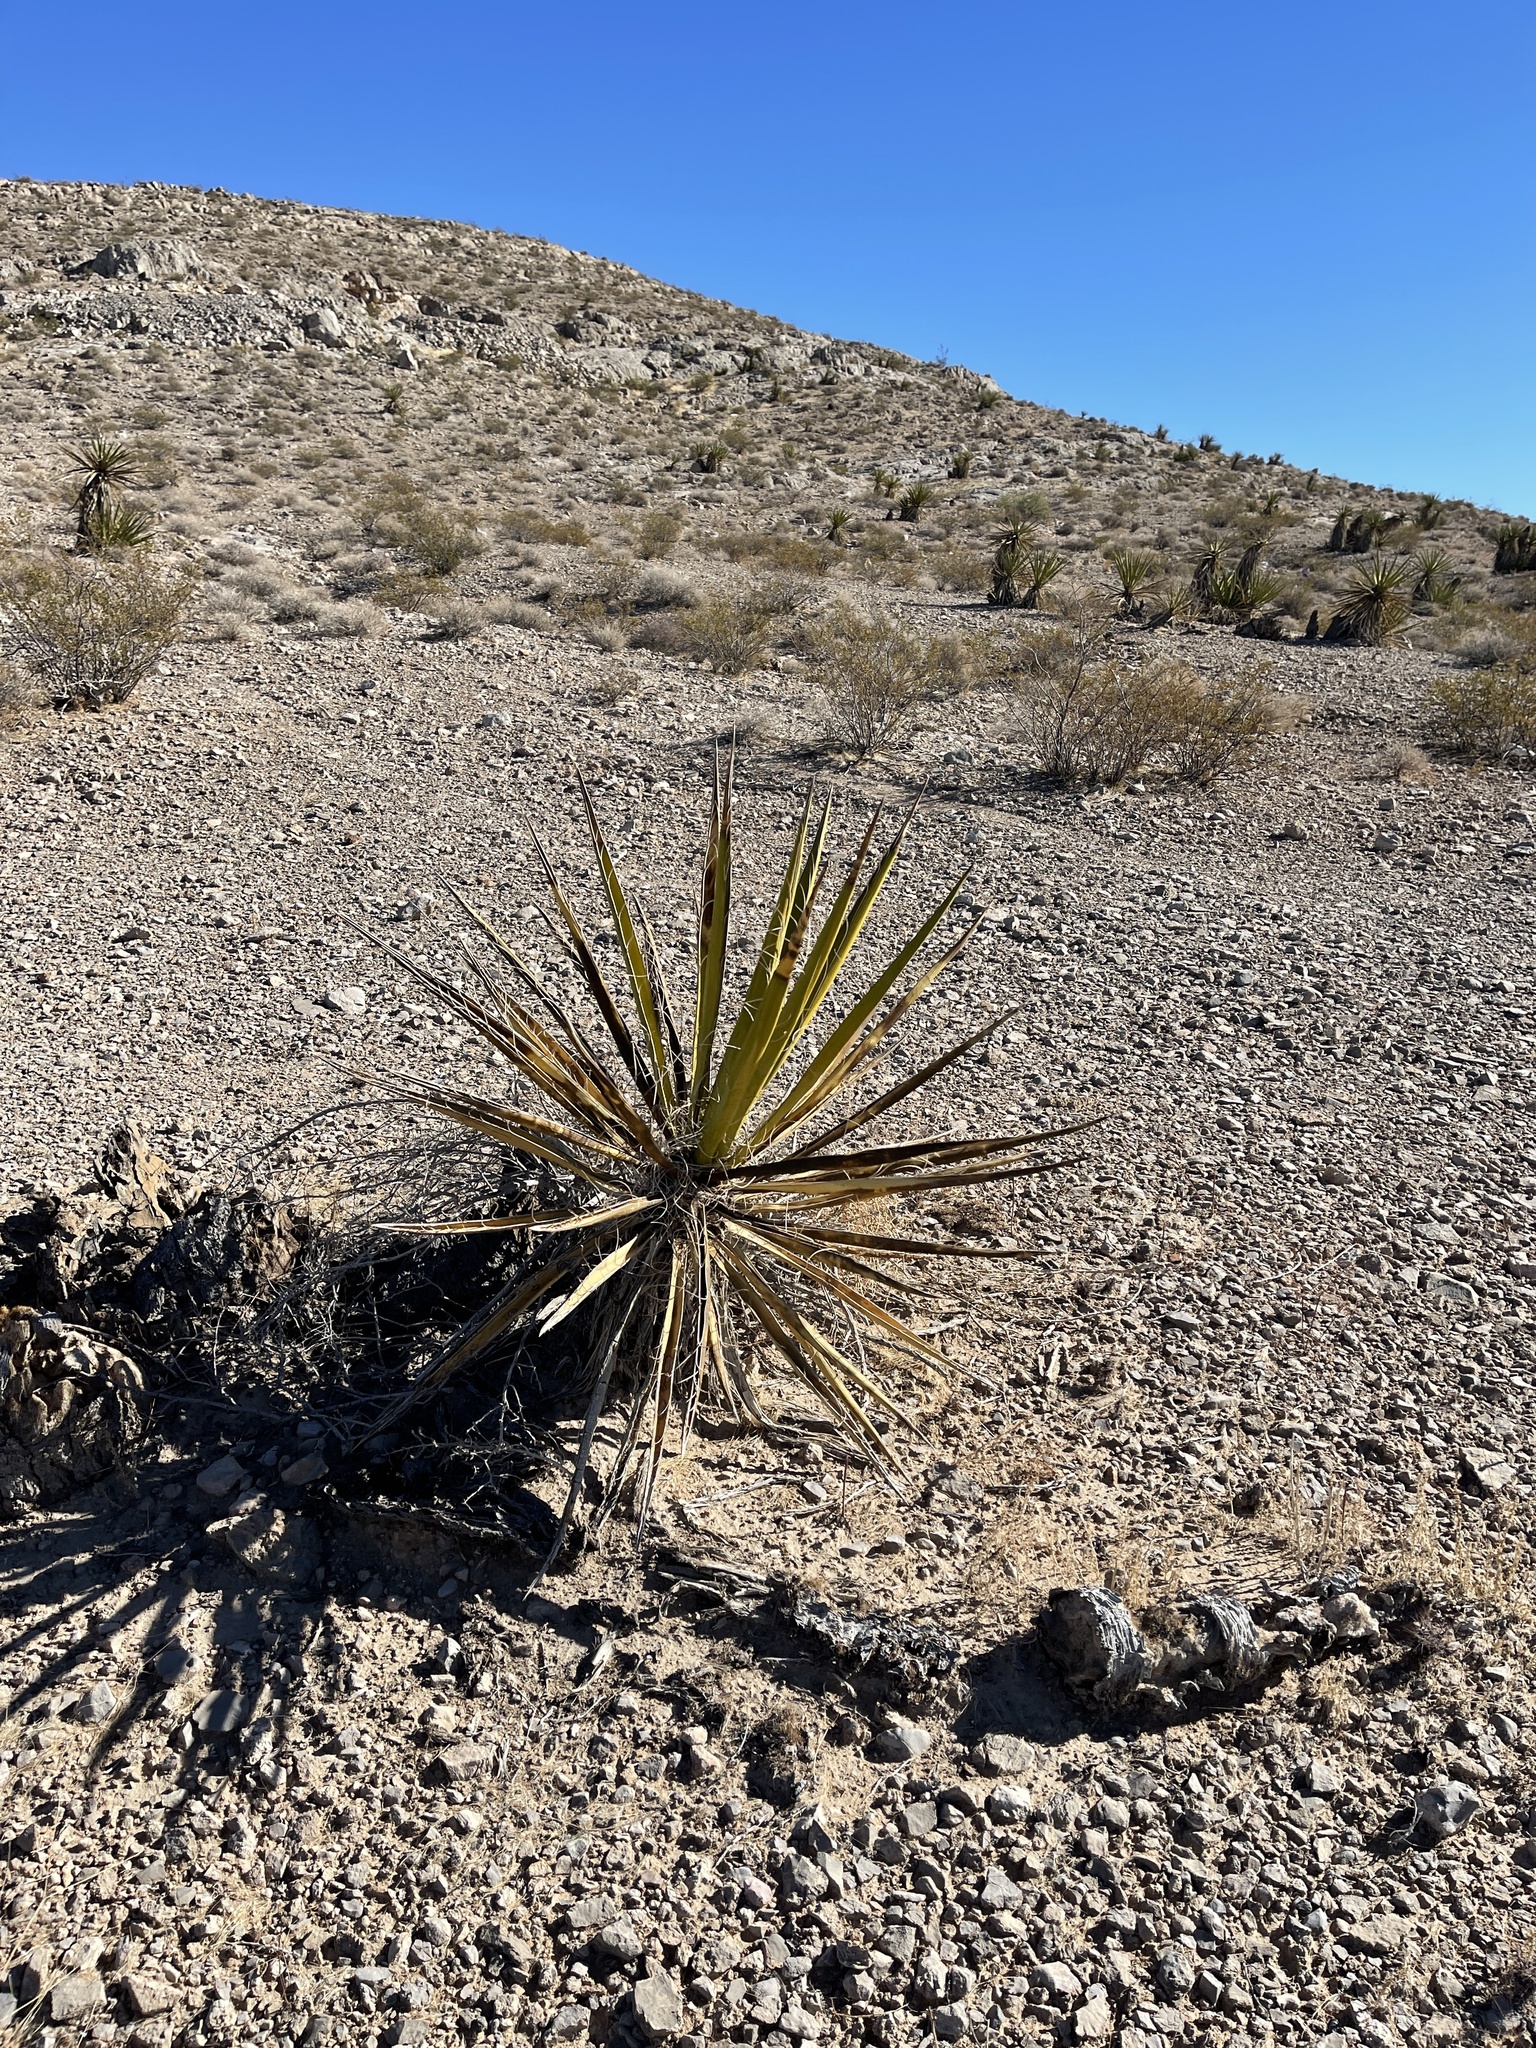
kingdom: Plantae
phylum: Tracheophyta
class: Liliopsida
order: Asparagales
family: Asparagaceae
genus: Yucca
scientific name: Yucca schidigera
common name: Mojave yucca
